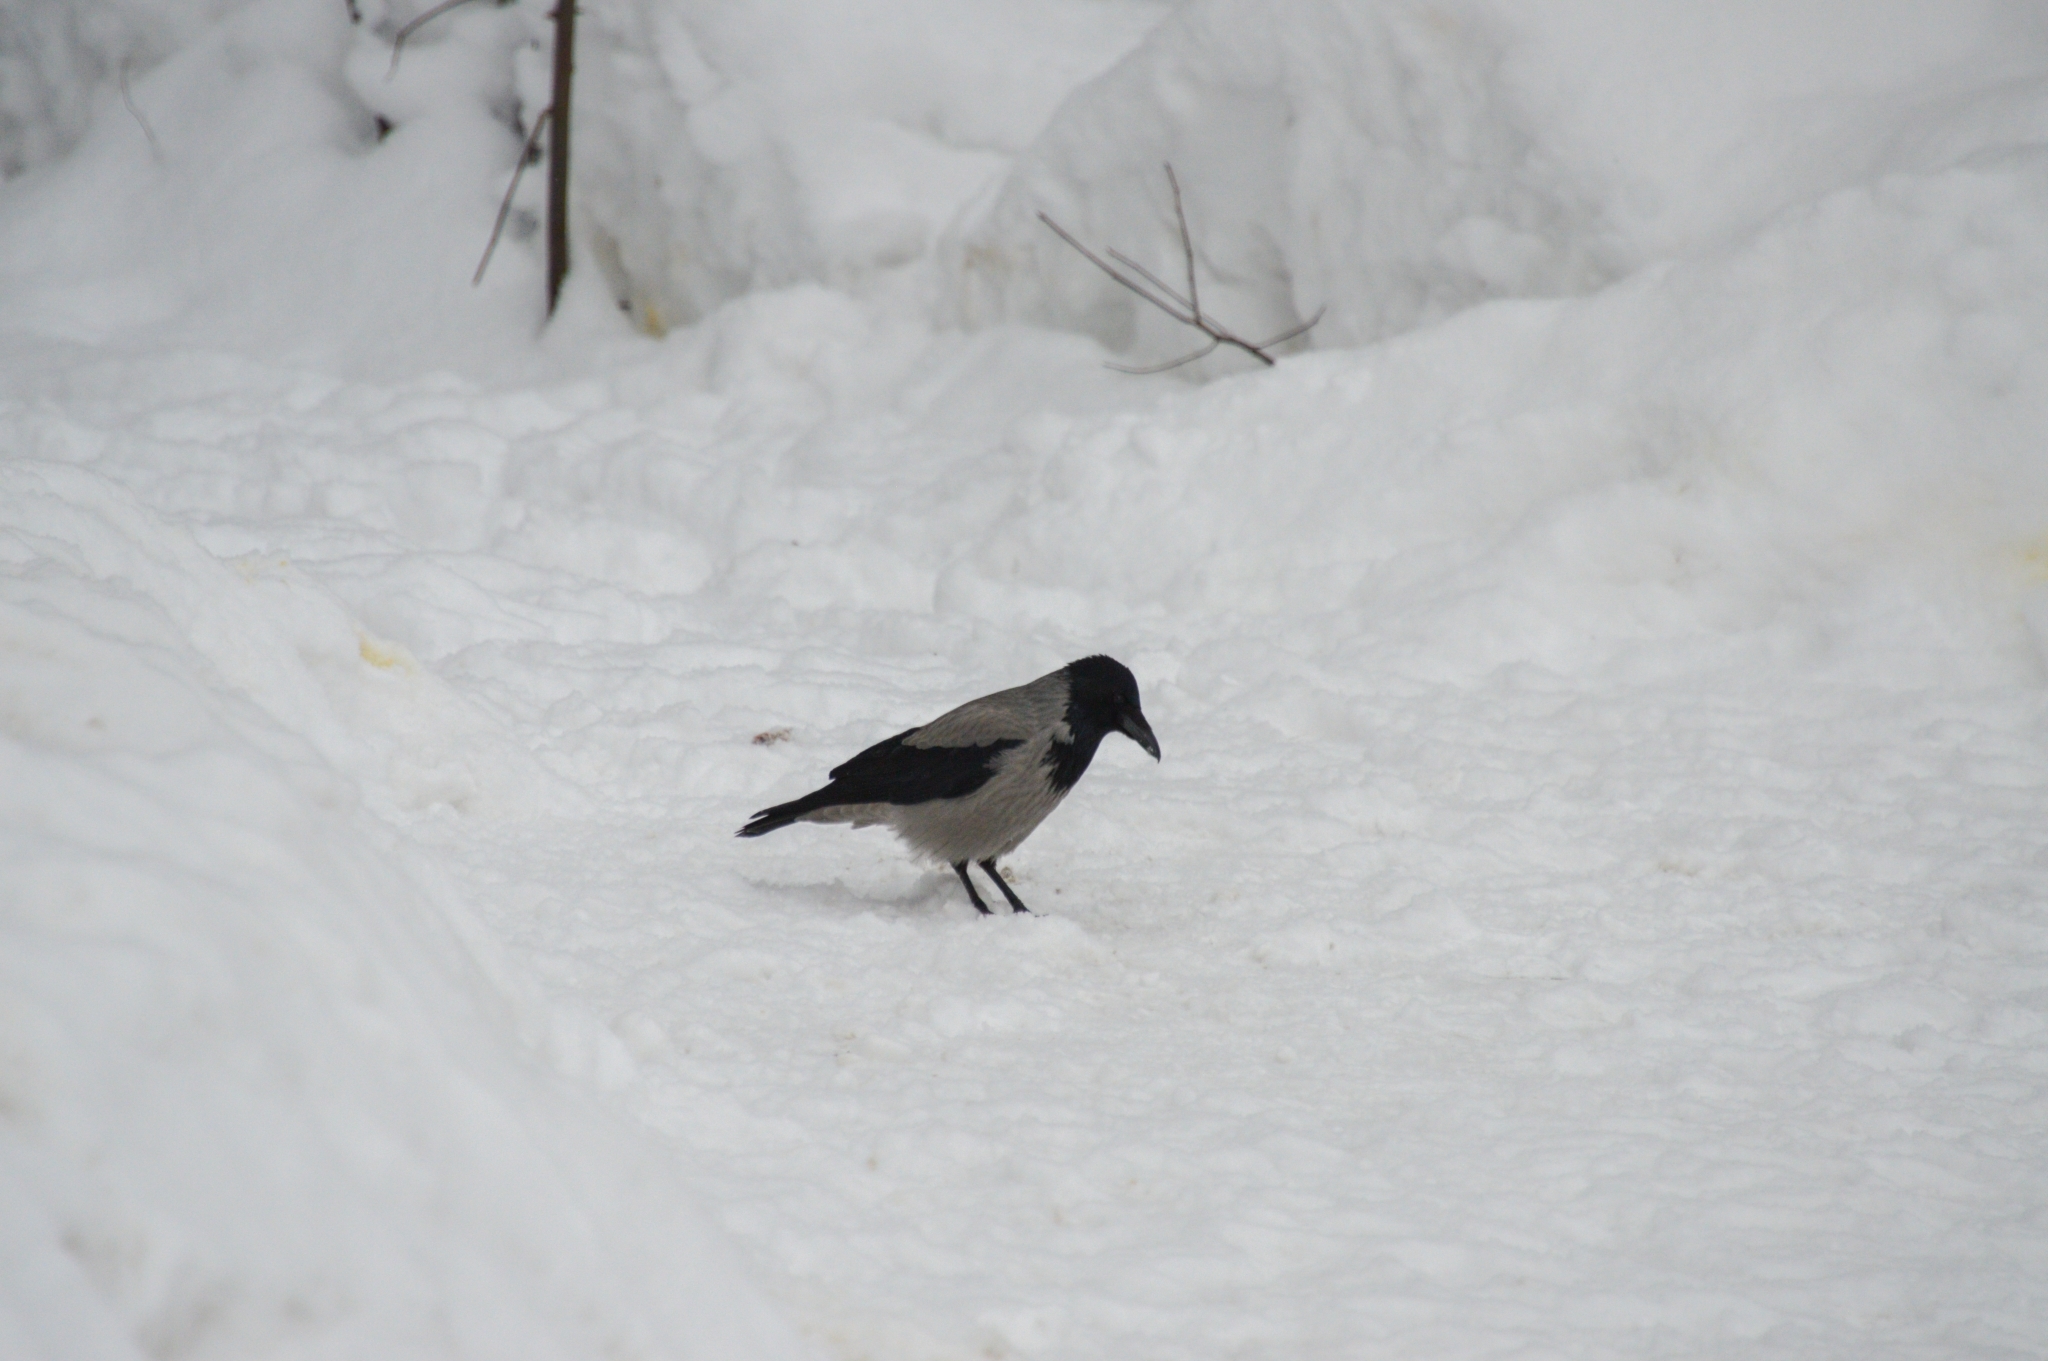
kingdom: Animalia
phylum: Chordata
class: Aves
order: Passeriformes
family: Corvidae
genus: Corvus
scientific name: Corvus cornix
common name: Hooded crow
